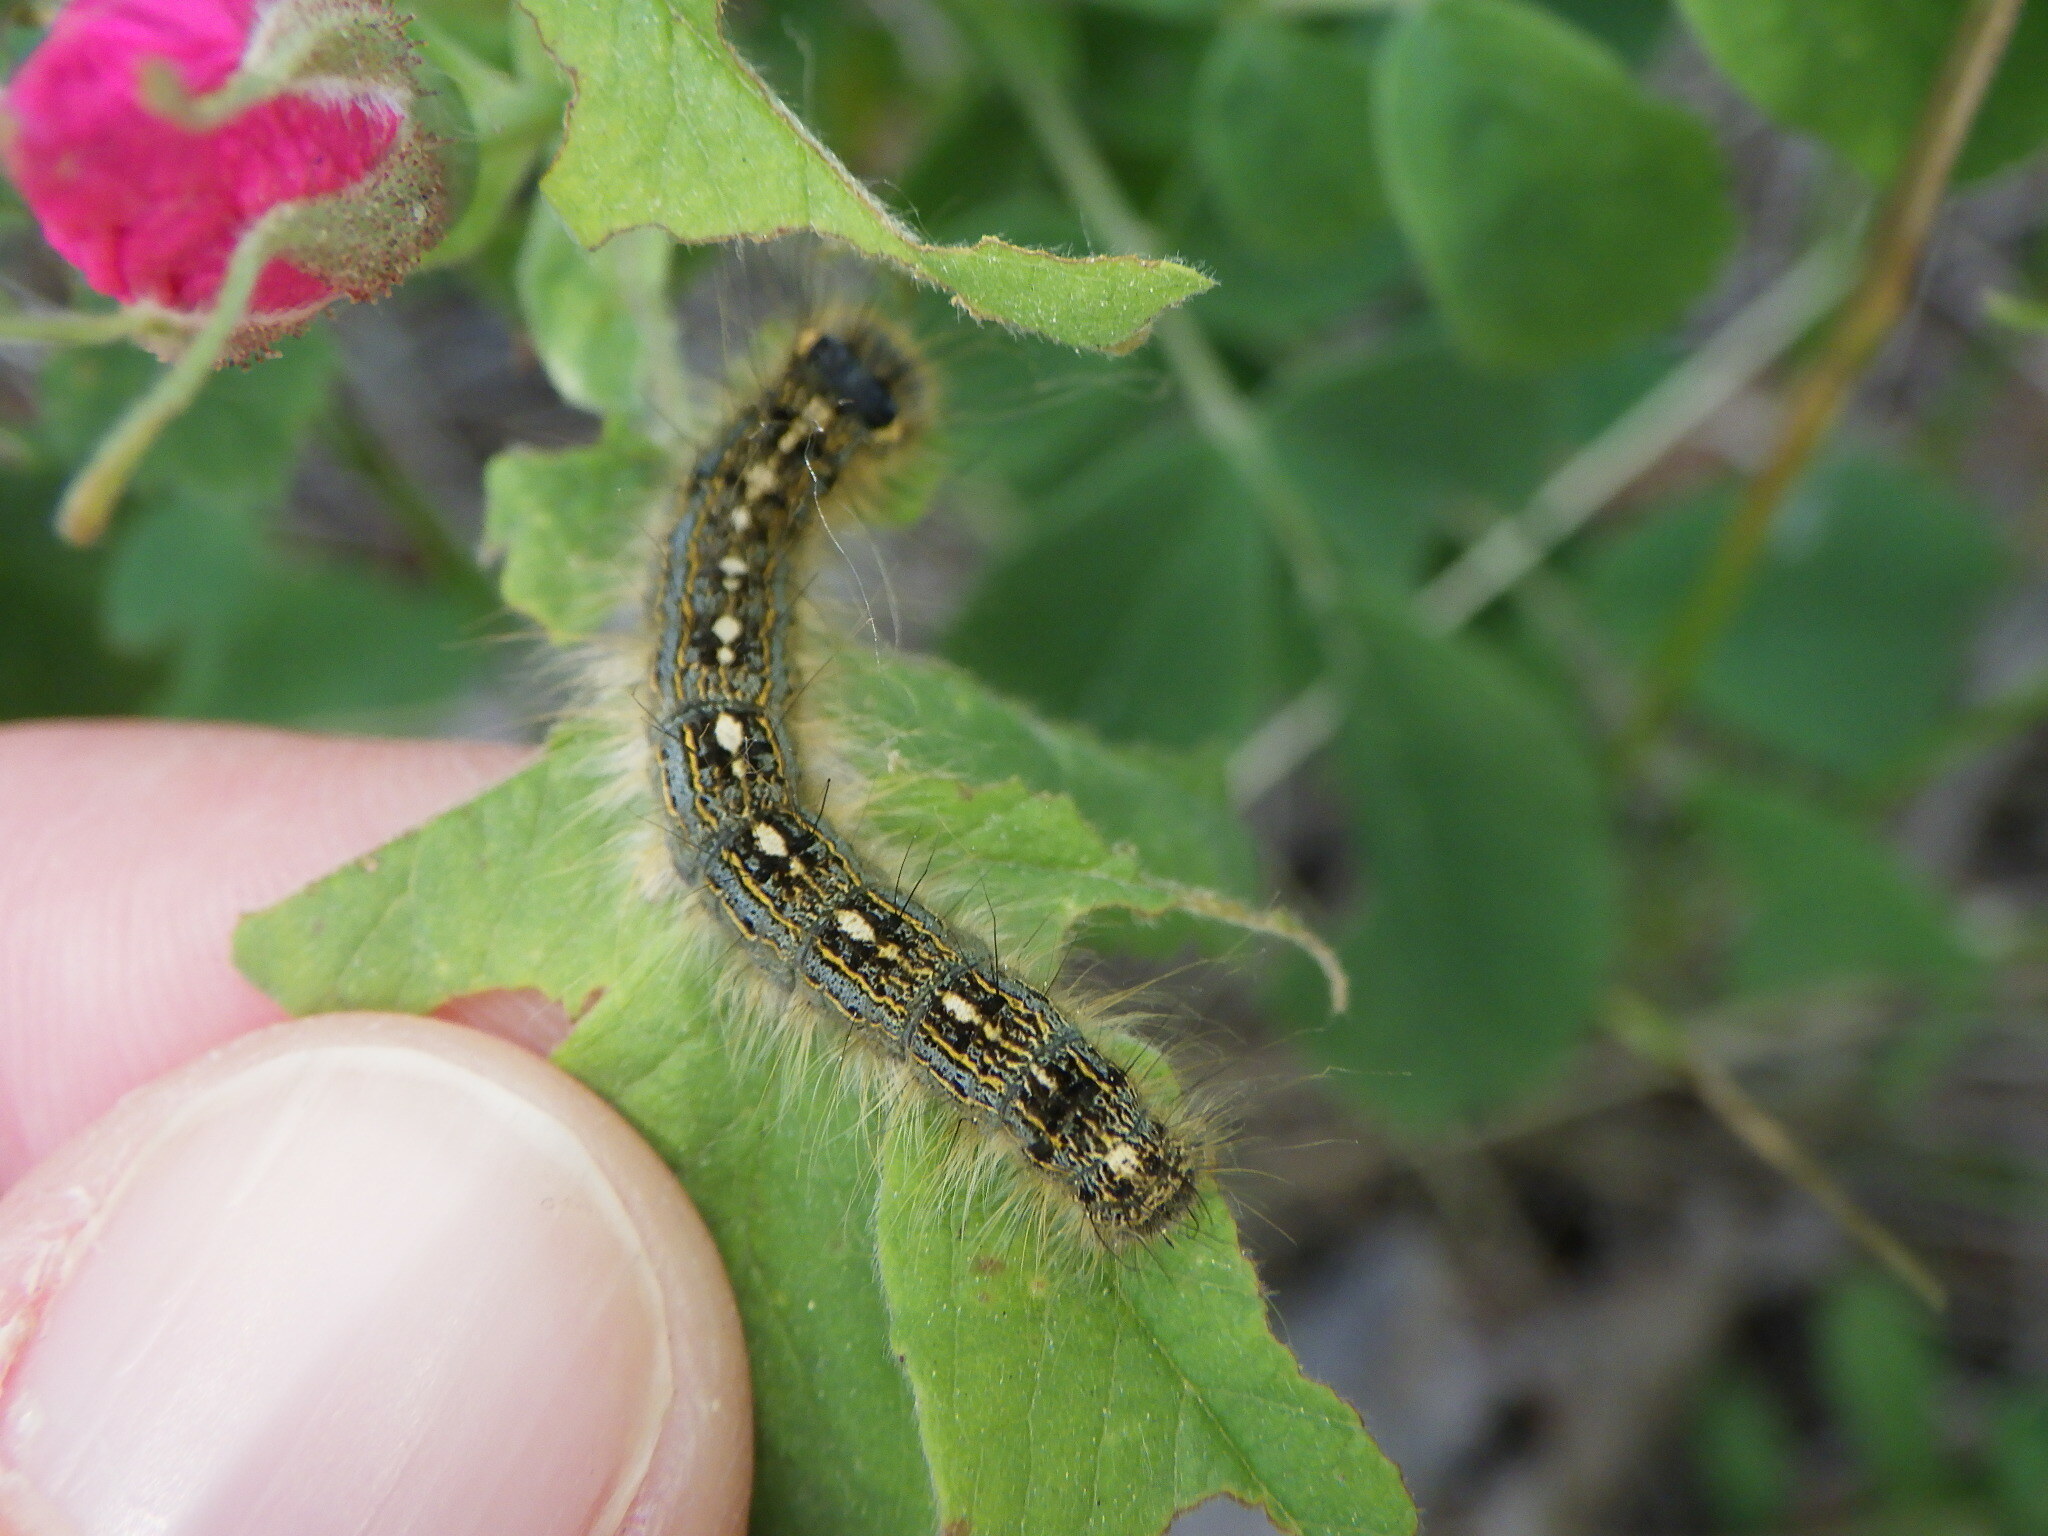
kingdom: Animalia
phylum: Arthropoda
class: Insecta
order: Lepidoptera
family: Lasiocampidae
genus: Malacosoma
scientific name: Malacosoma disstria
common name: Forest tent caterpillar
